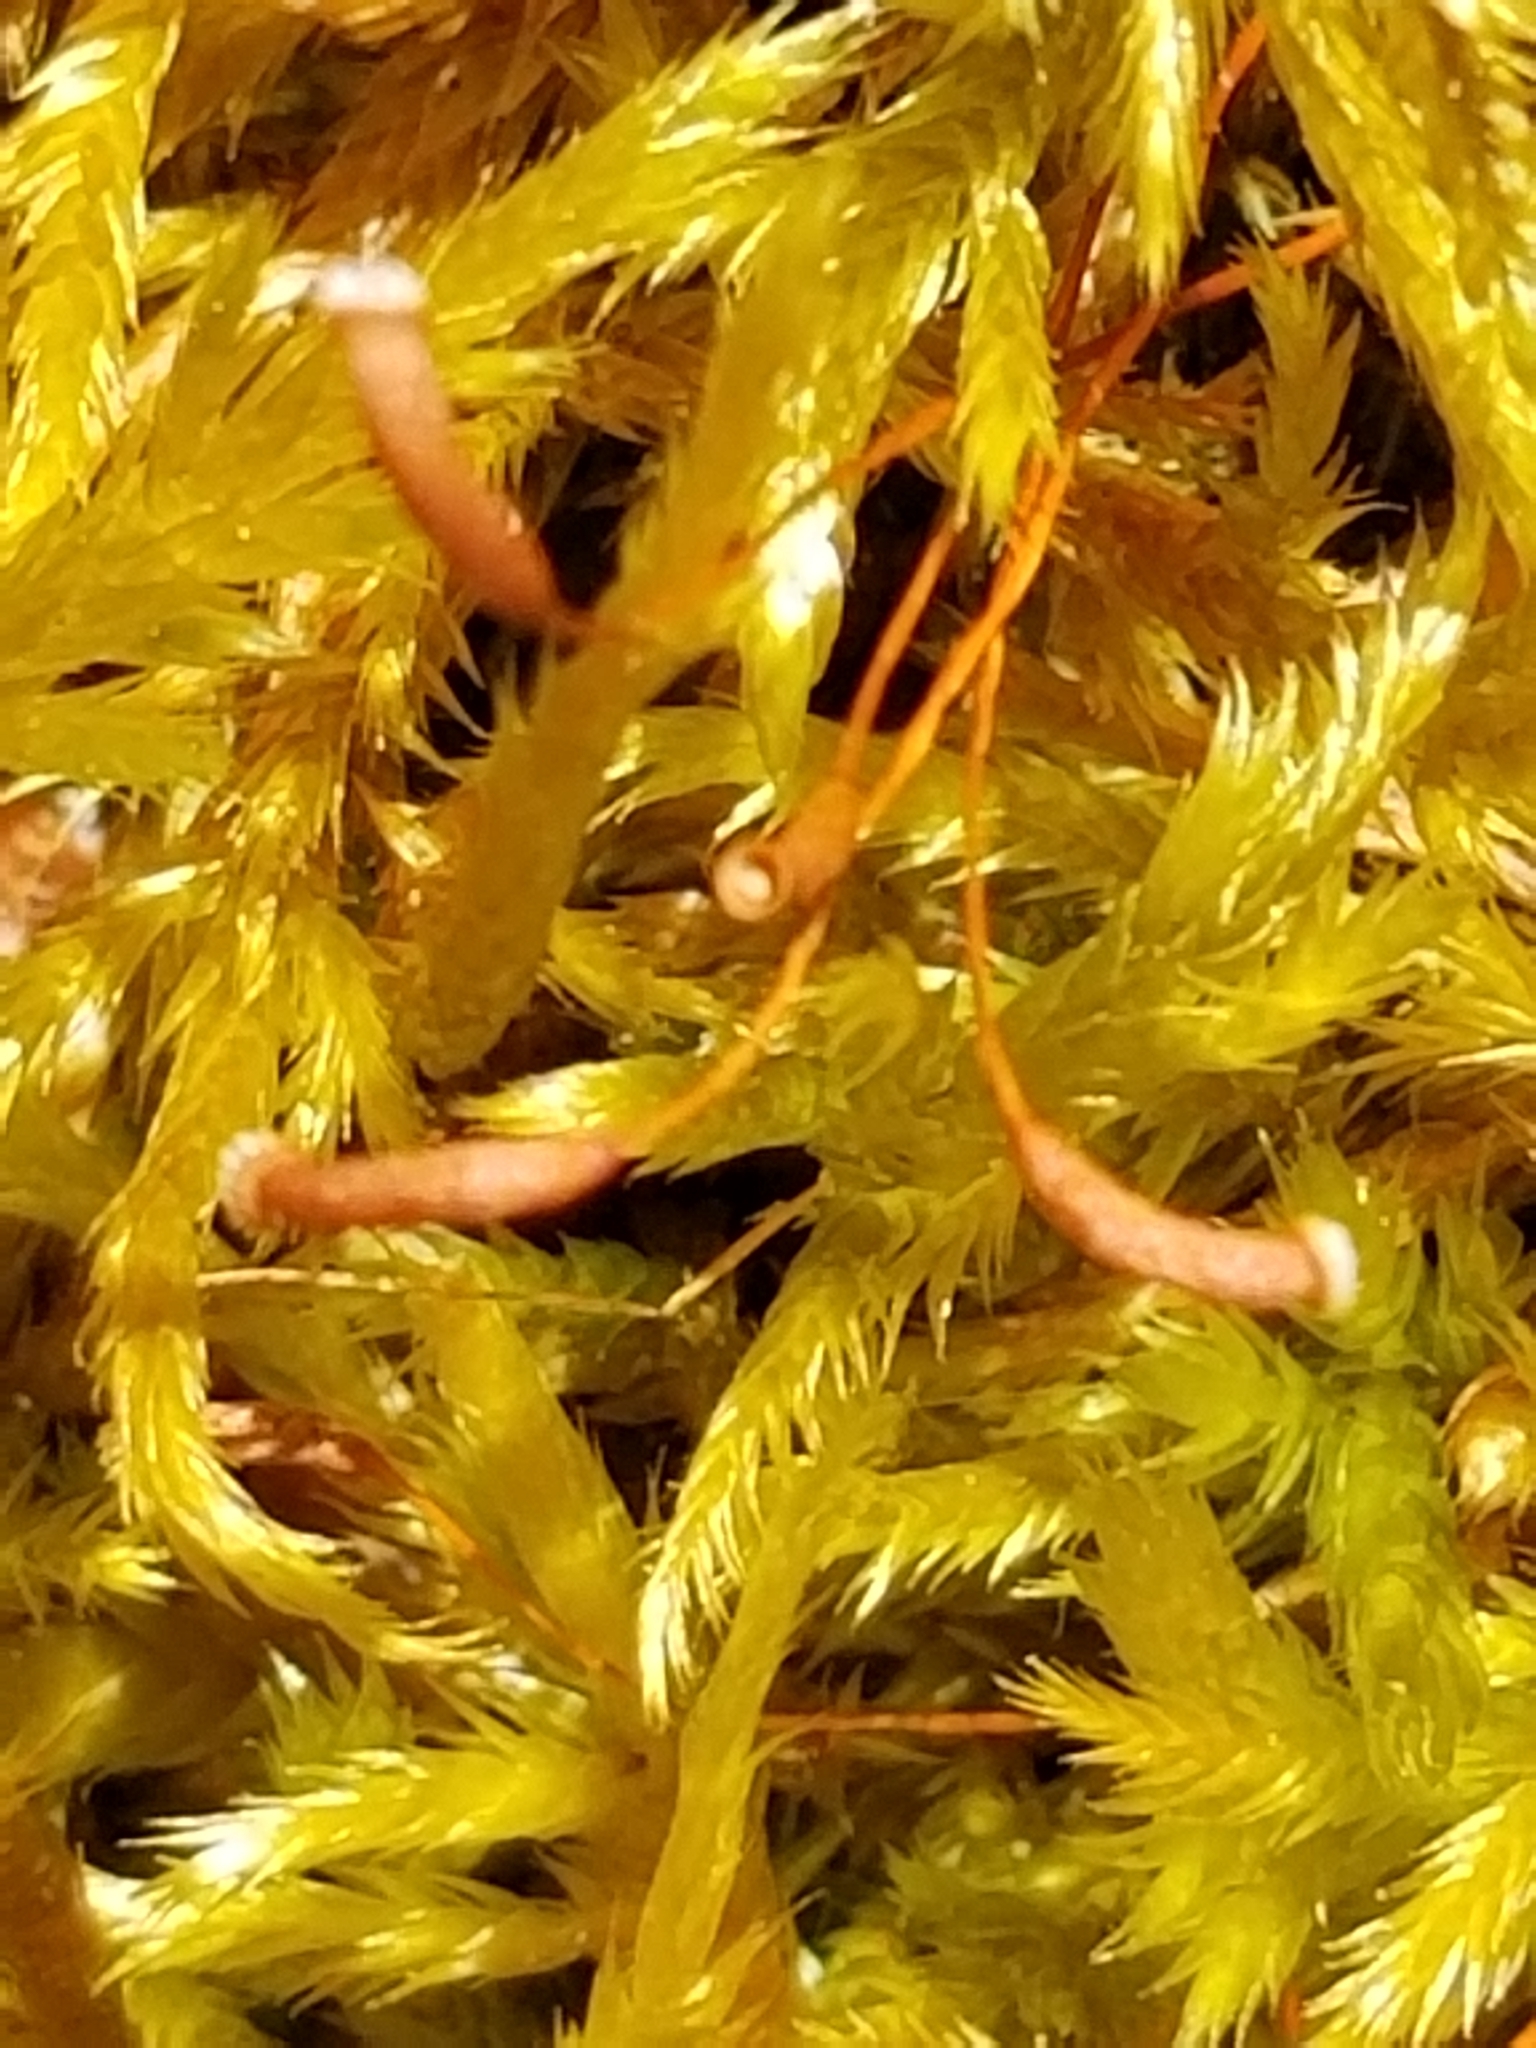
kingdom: Plantae
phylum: Bryophyta
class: Bryopsida
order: Hypnales
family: Callicladiaceae
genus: Callicladium
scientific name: Callicladium haldanianum
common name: Beautiful branch moss
